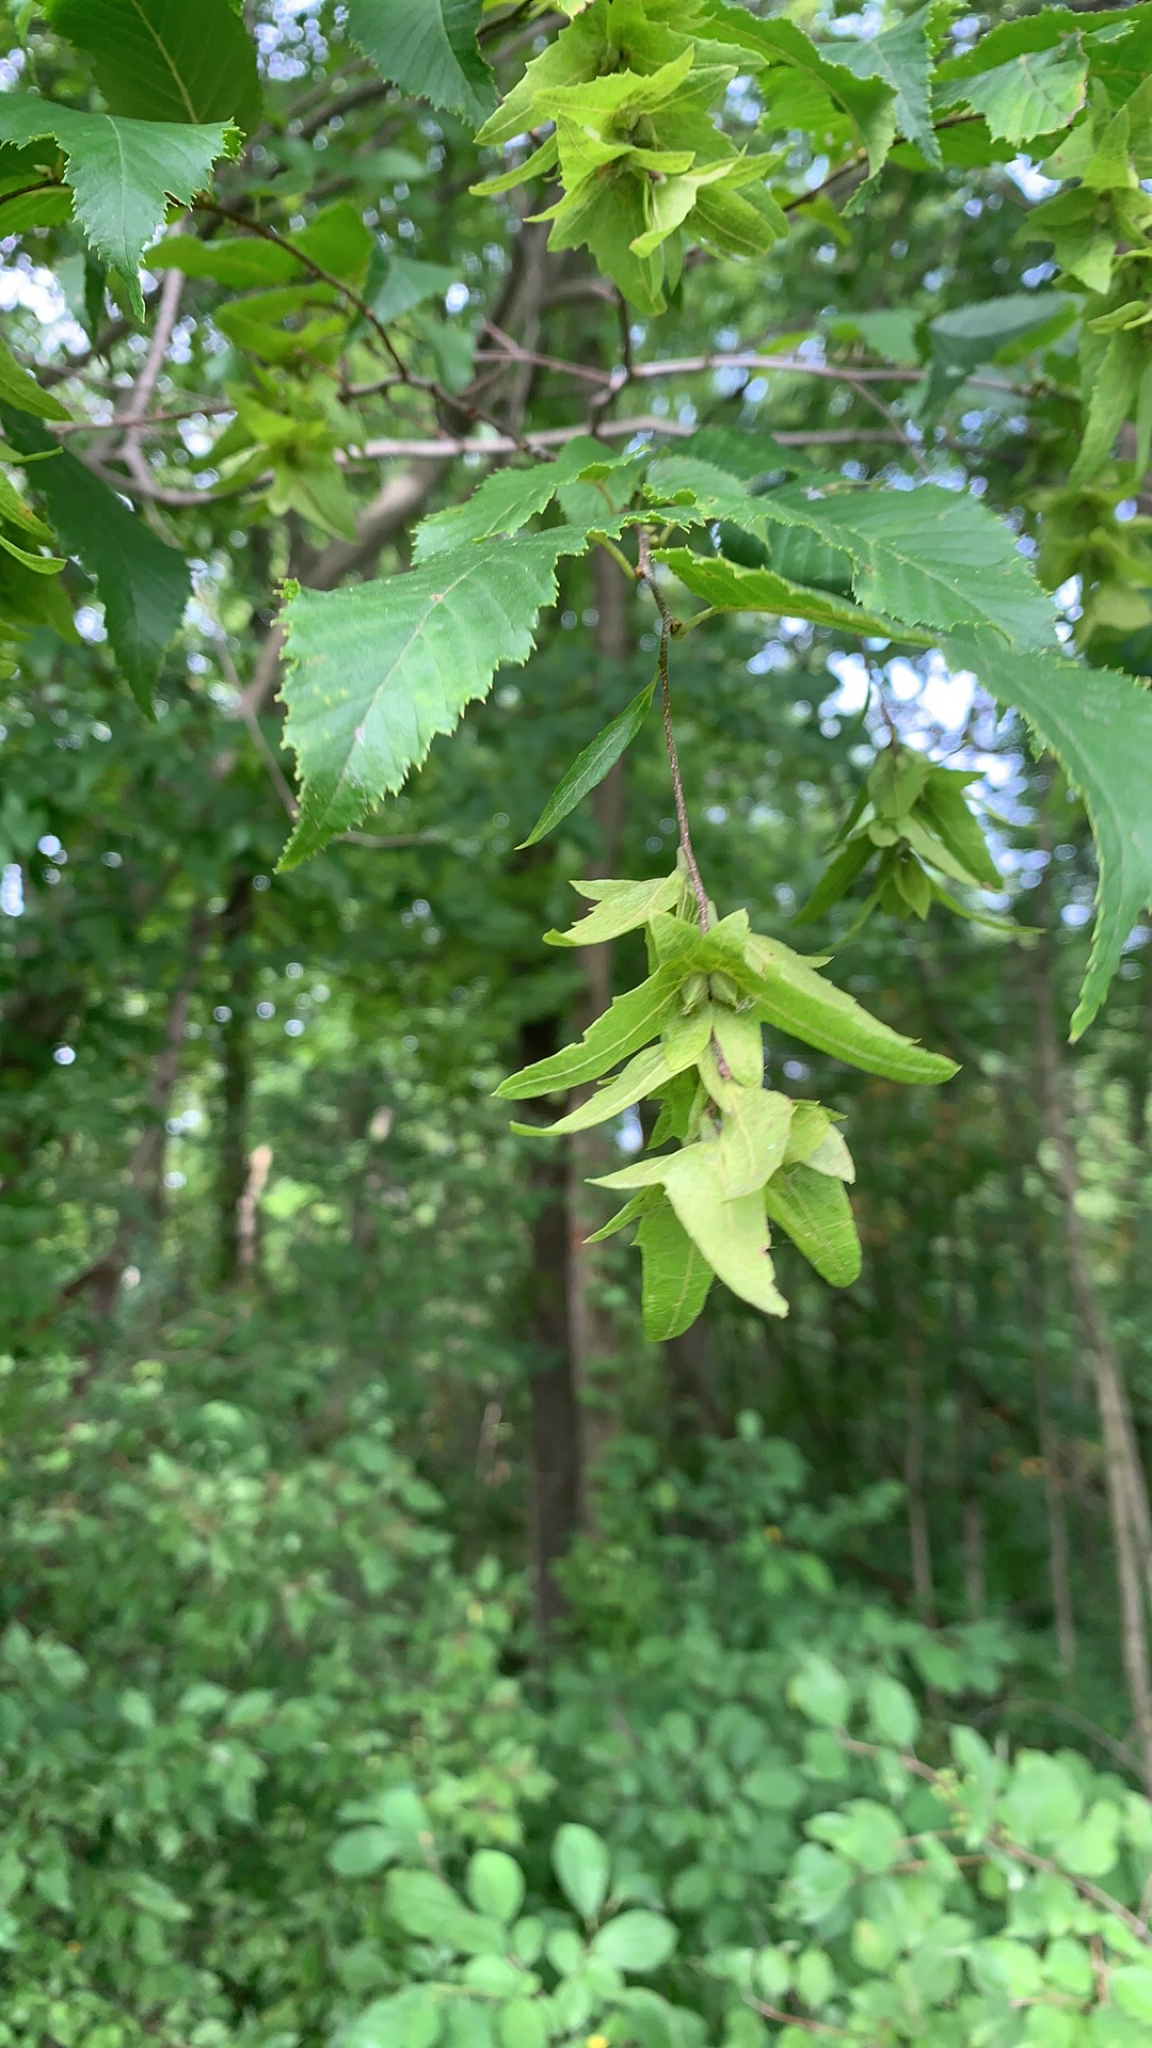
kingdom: Plantae
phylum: Tracheophyta
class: Magnoliopsida
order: Fagales
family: Betulaceae
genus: Carpinus
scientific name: Carpinus caroliniana
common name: American hornbeam
